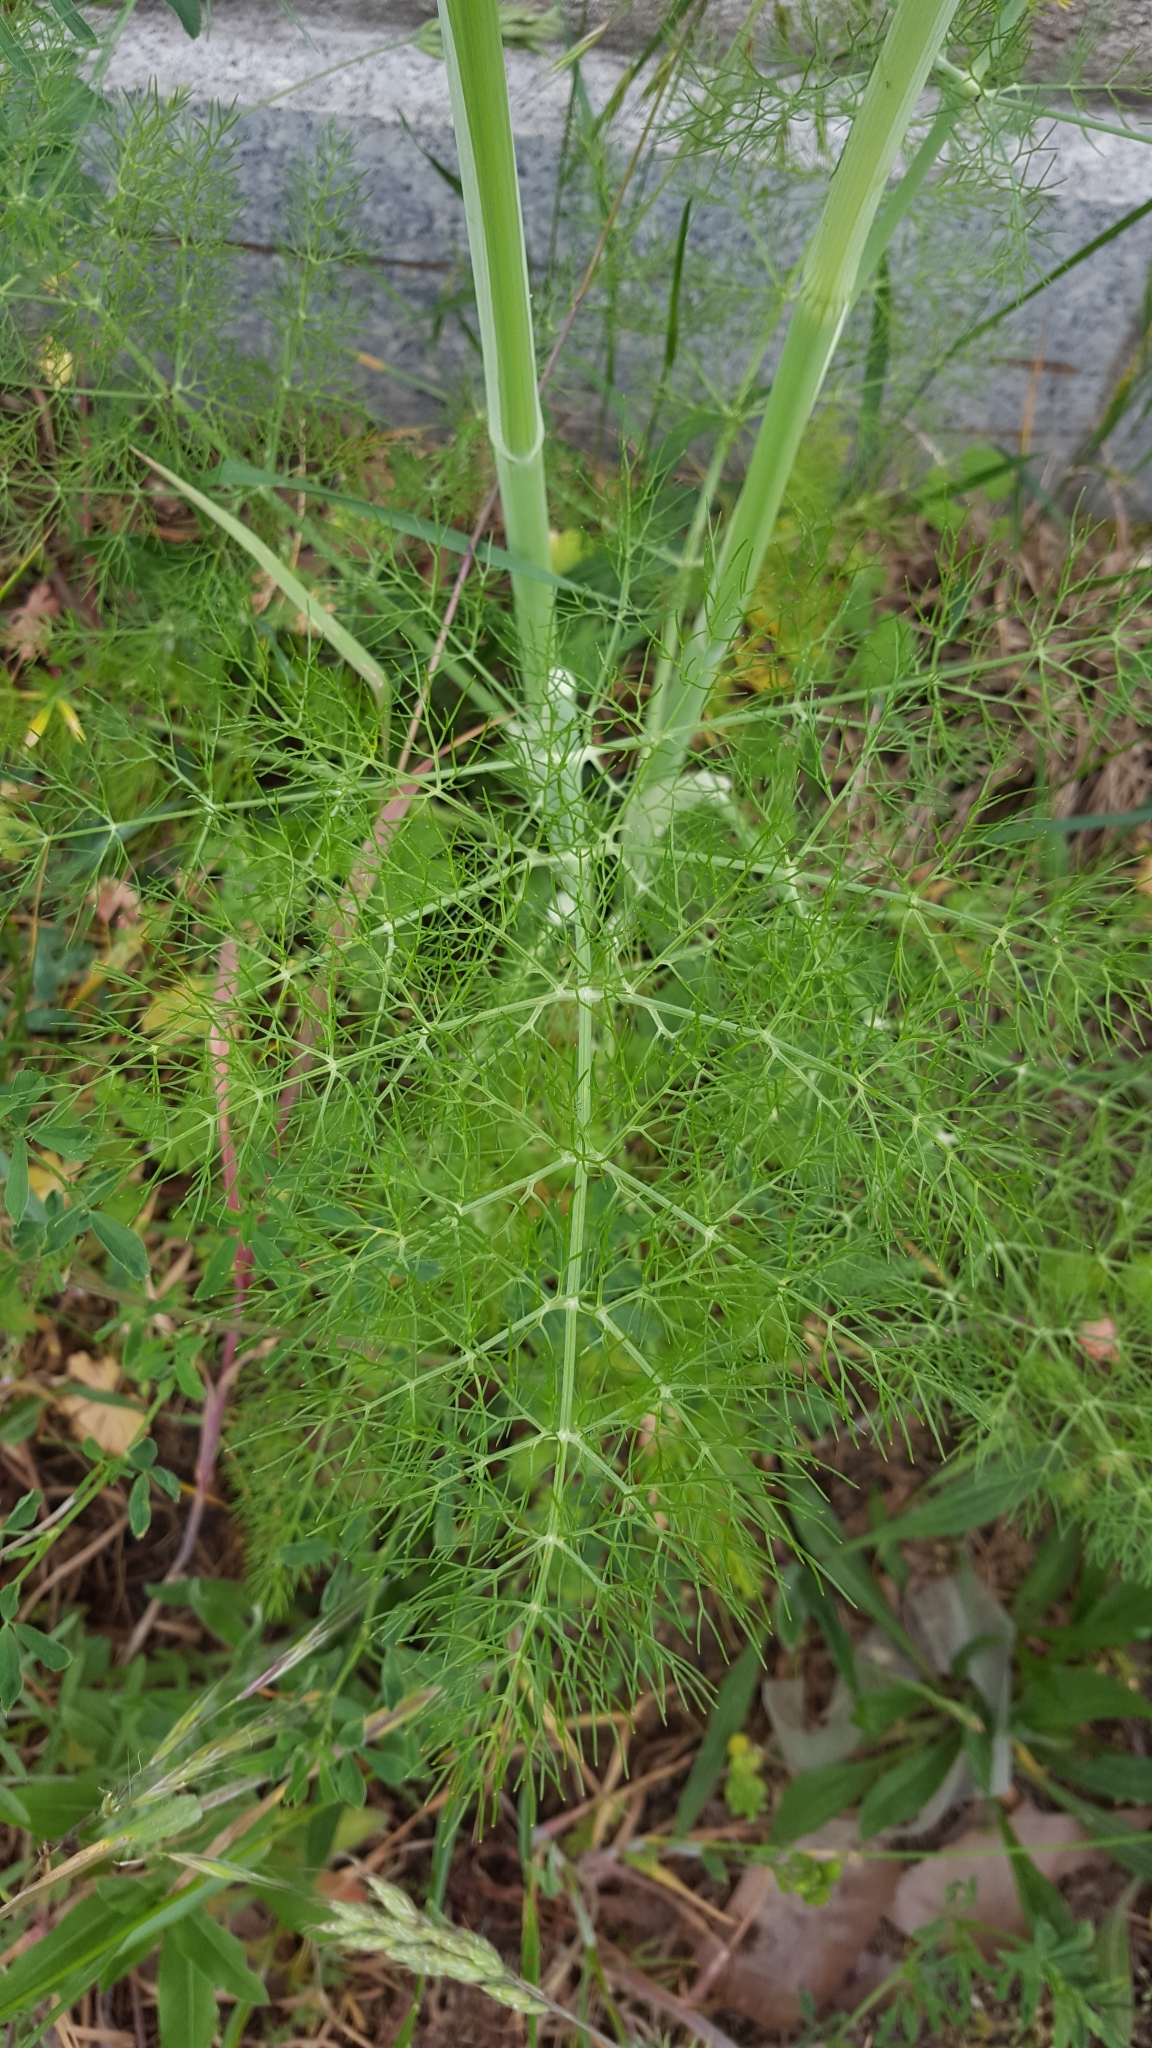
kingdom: Plantae
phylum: Tracheophyta
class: Magnoliopsida
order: Apiales
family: Apiaceae
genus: Foeniculum
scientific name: Foeniculum vulgare
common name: Fennel
